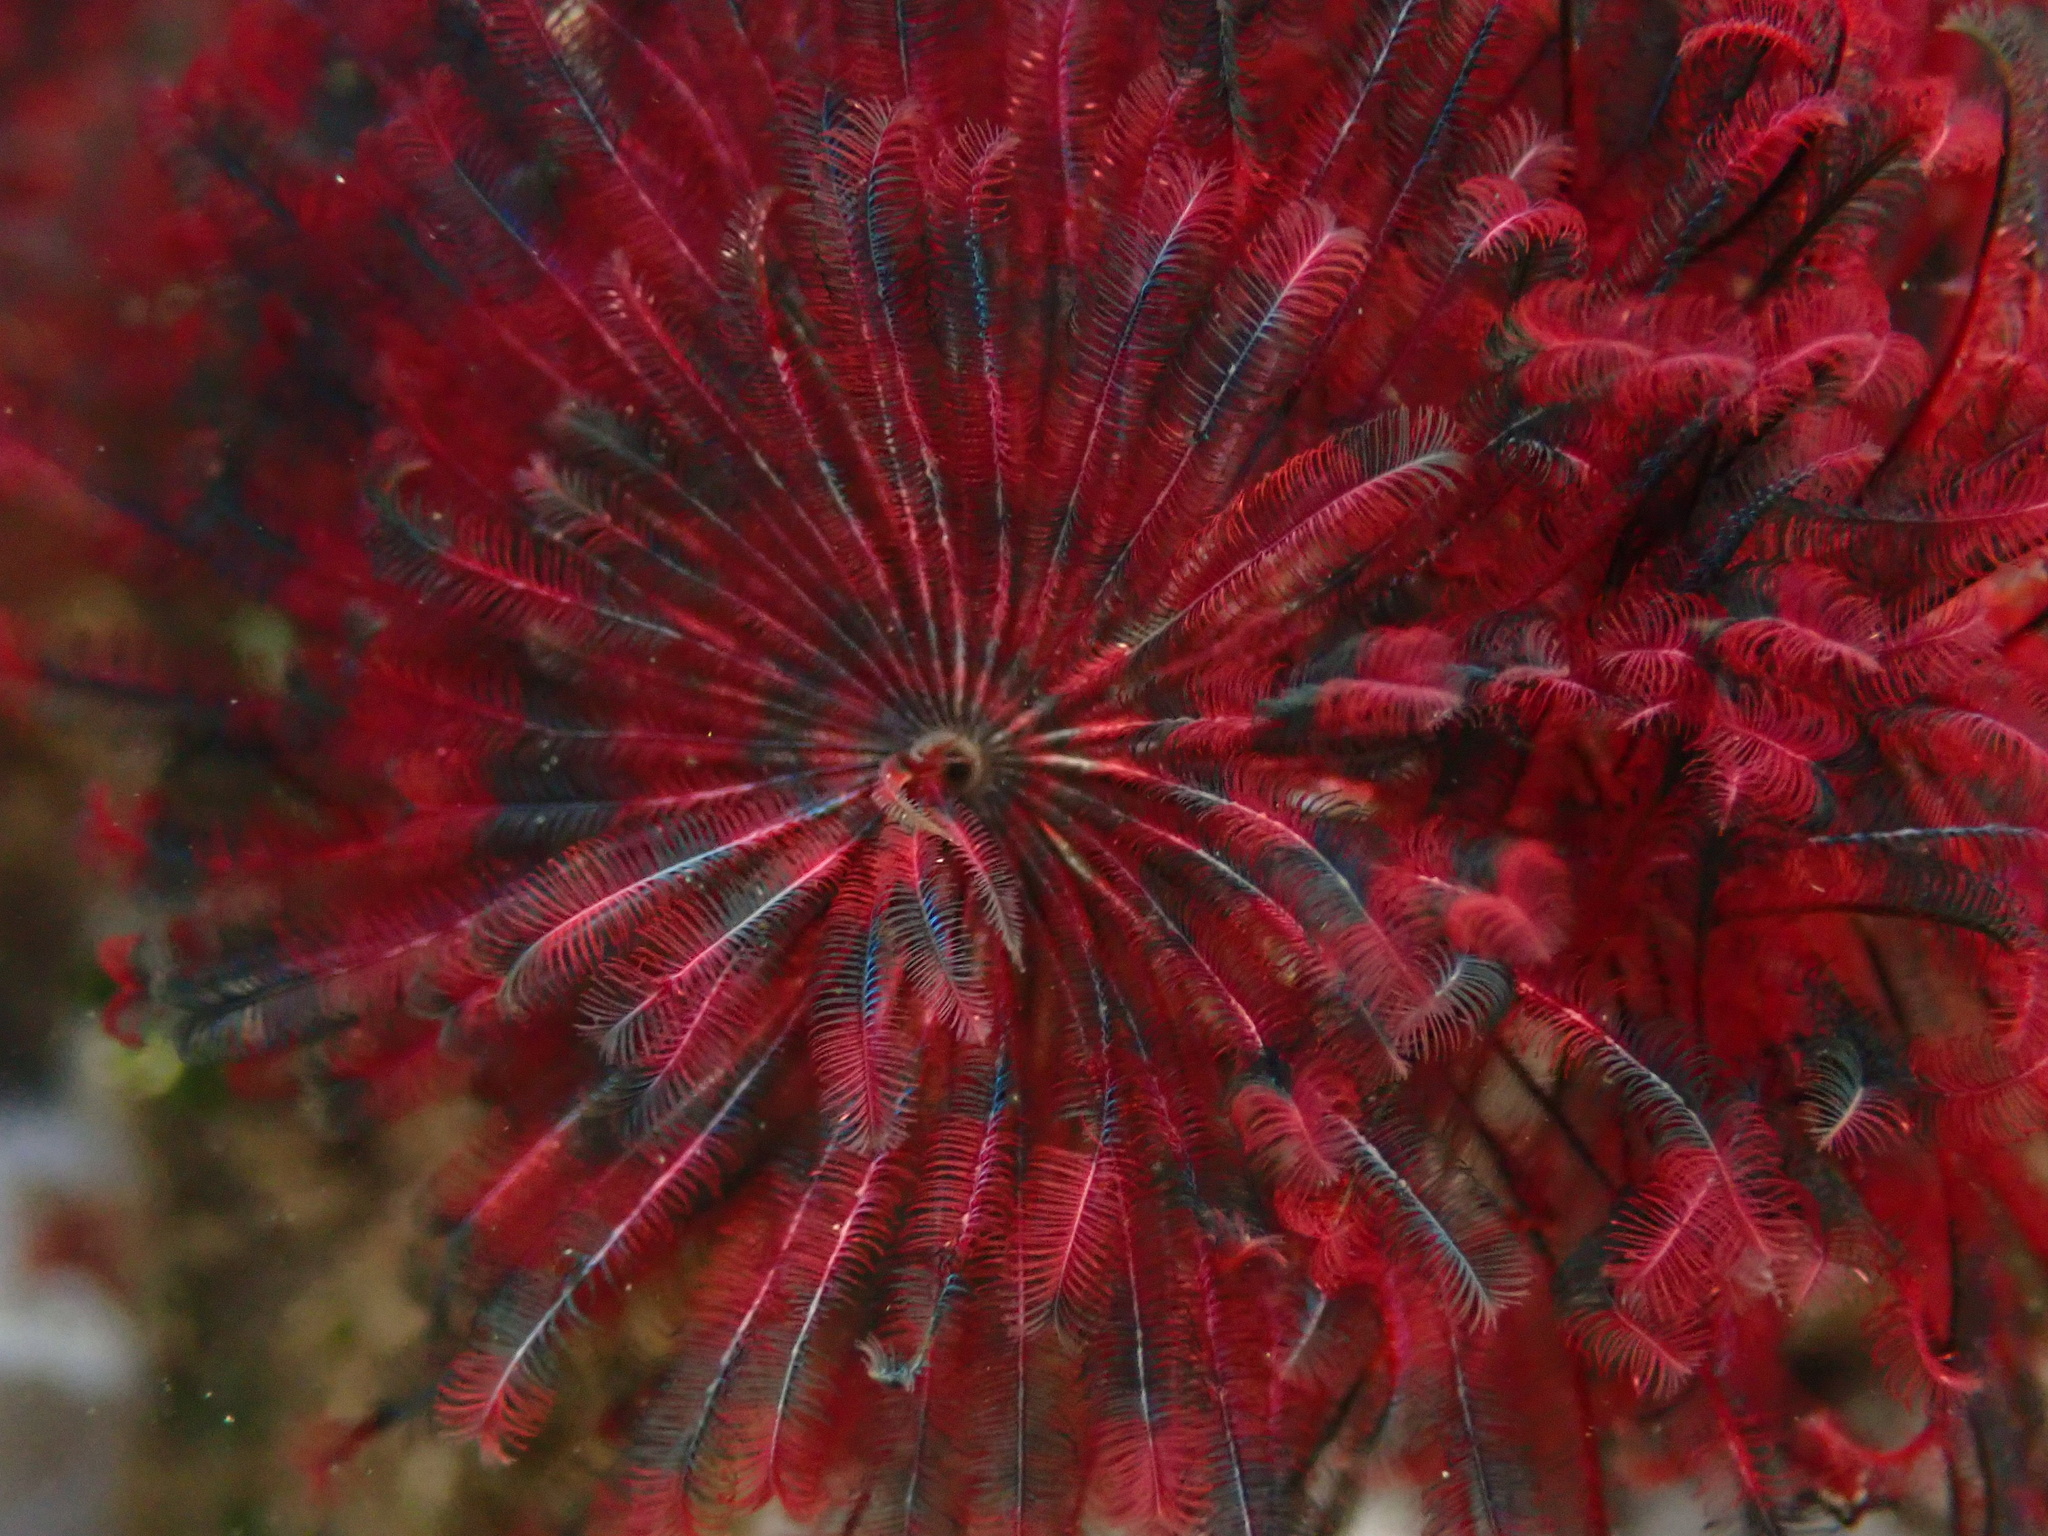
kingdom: Animalia
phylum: Annelida
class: Polychaeta
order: Sabellida
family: Sabellidae
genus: Eudistylia
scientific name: Eudistylia vancouveri
